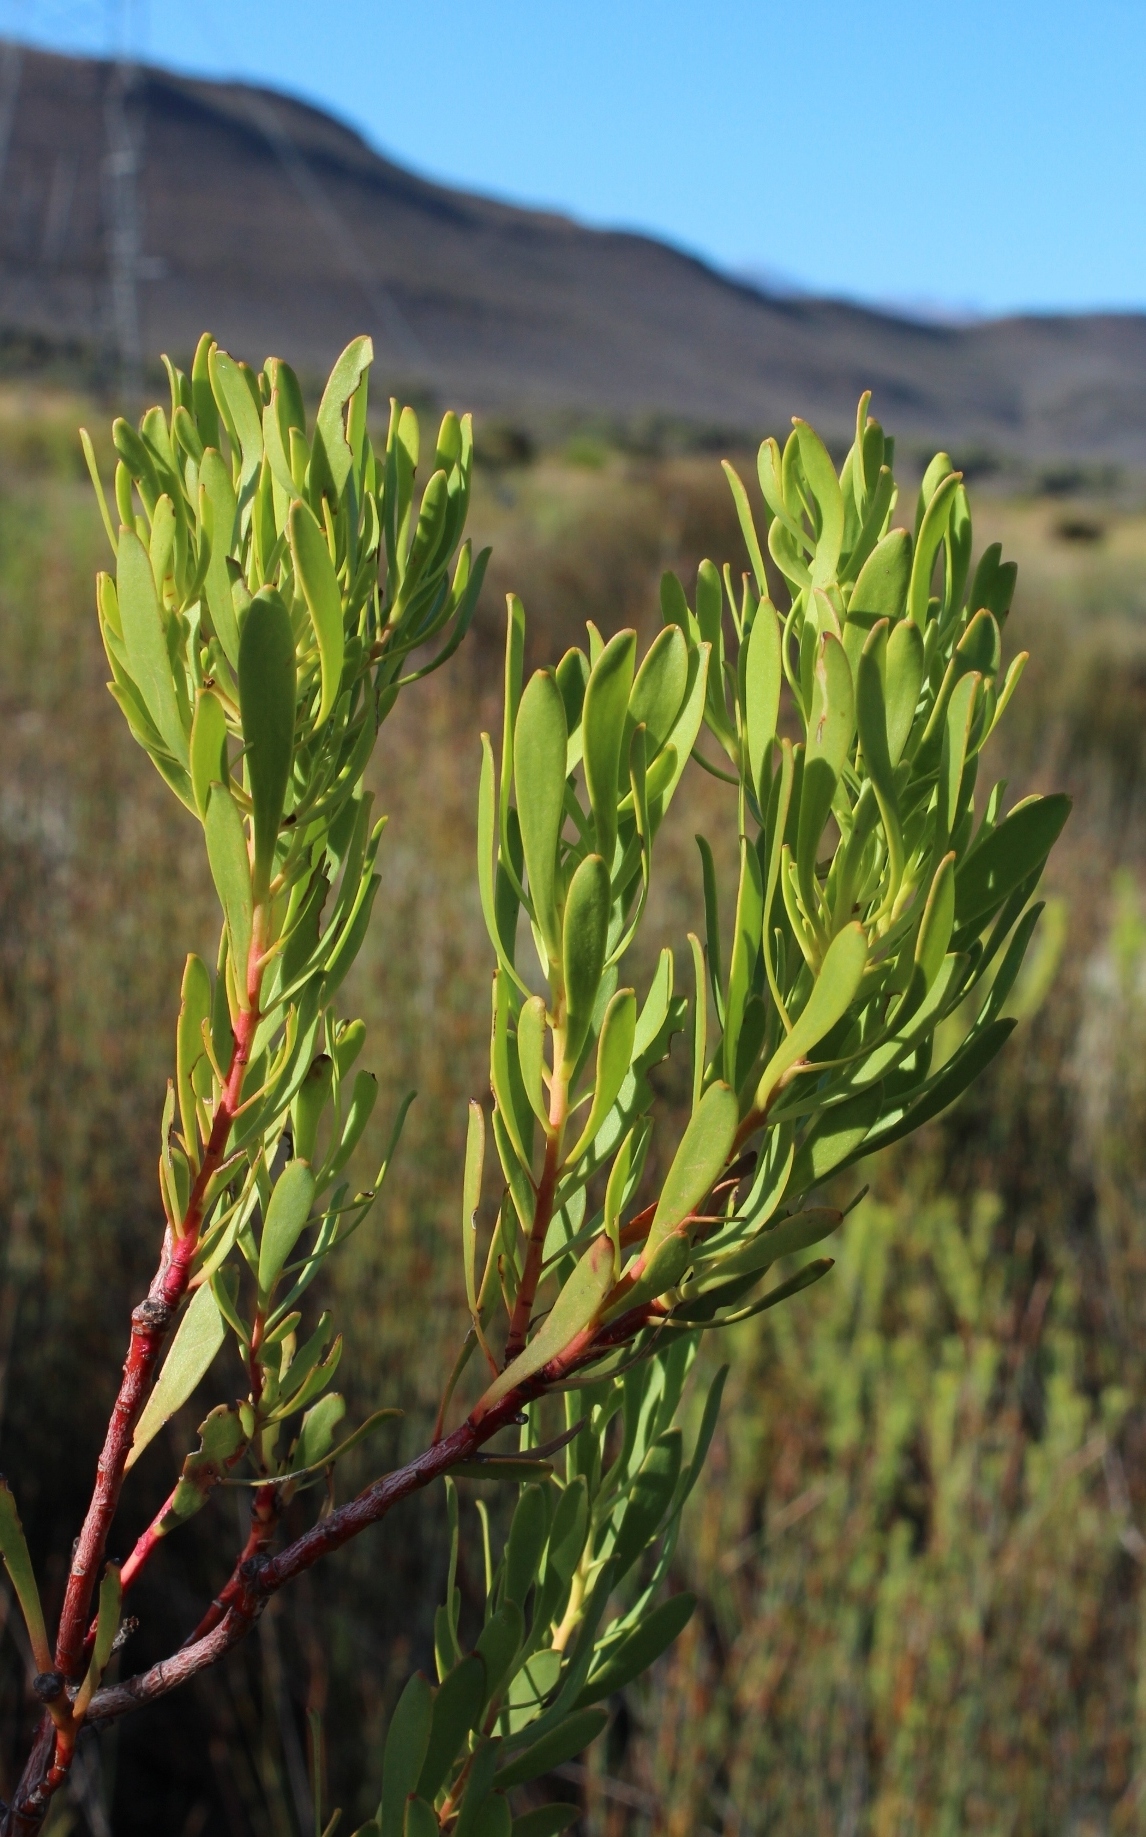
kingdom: Plantae
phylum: Tracheophyta
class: Magnoliopsida
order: Proteales
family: Proteaceae
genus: Leucadendron
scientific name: Leucadendron chamelaea
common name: Witsenberg conebush
